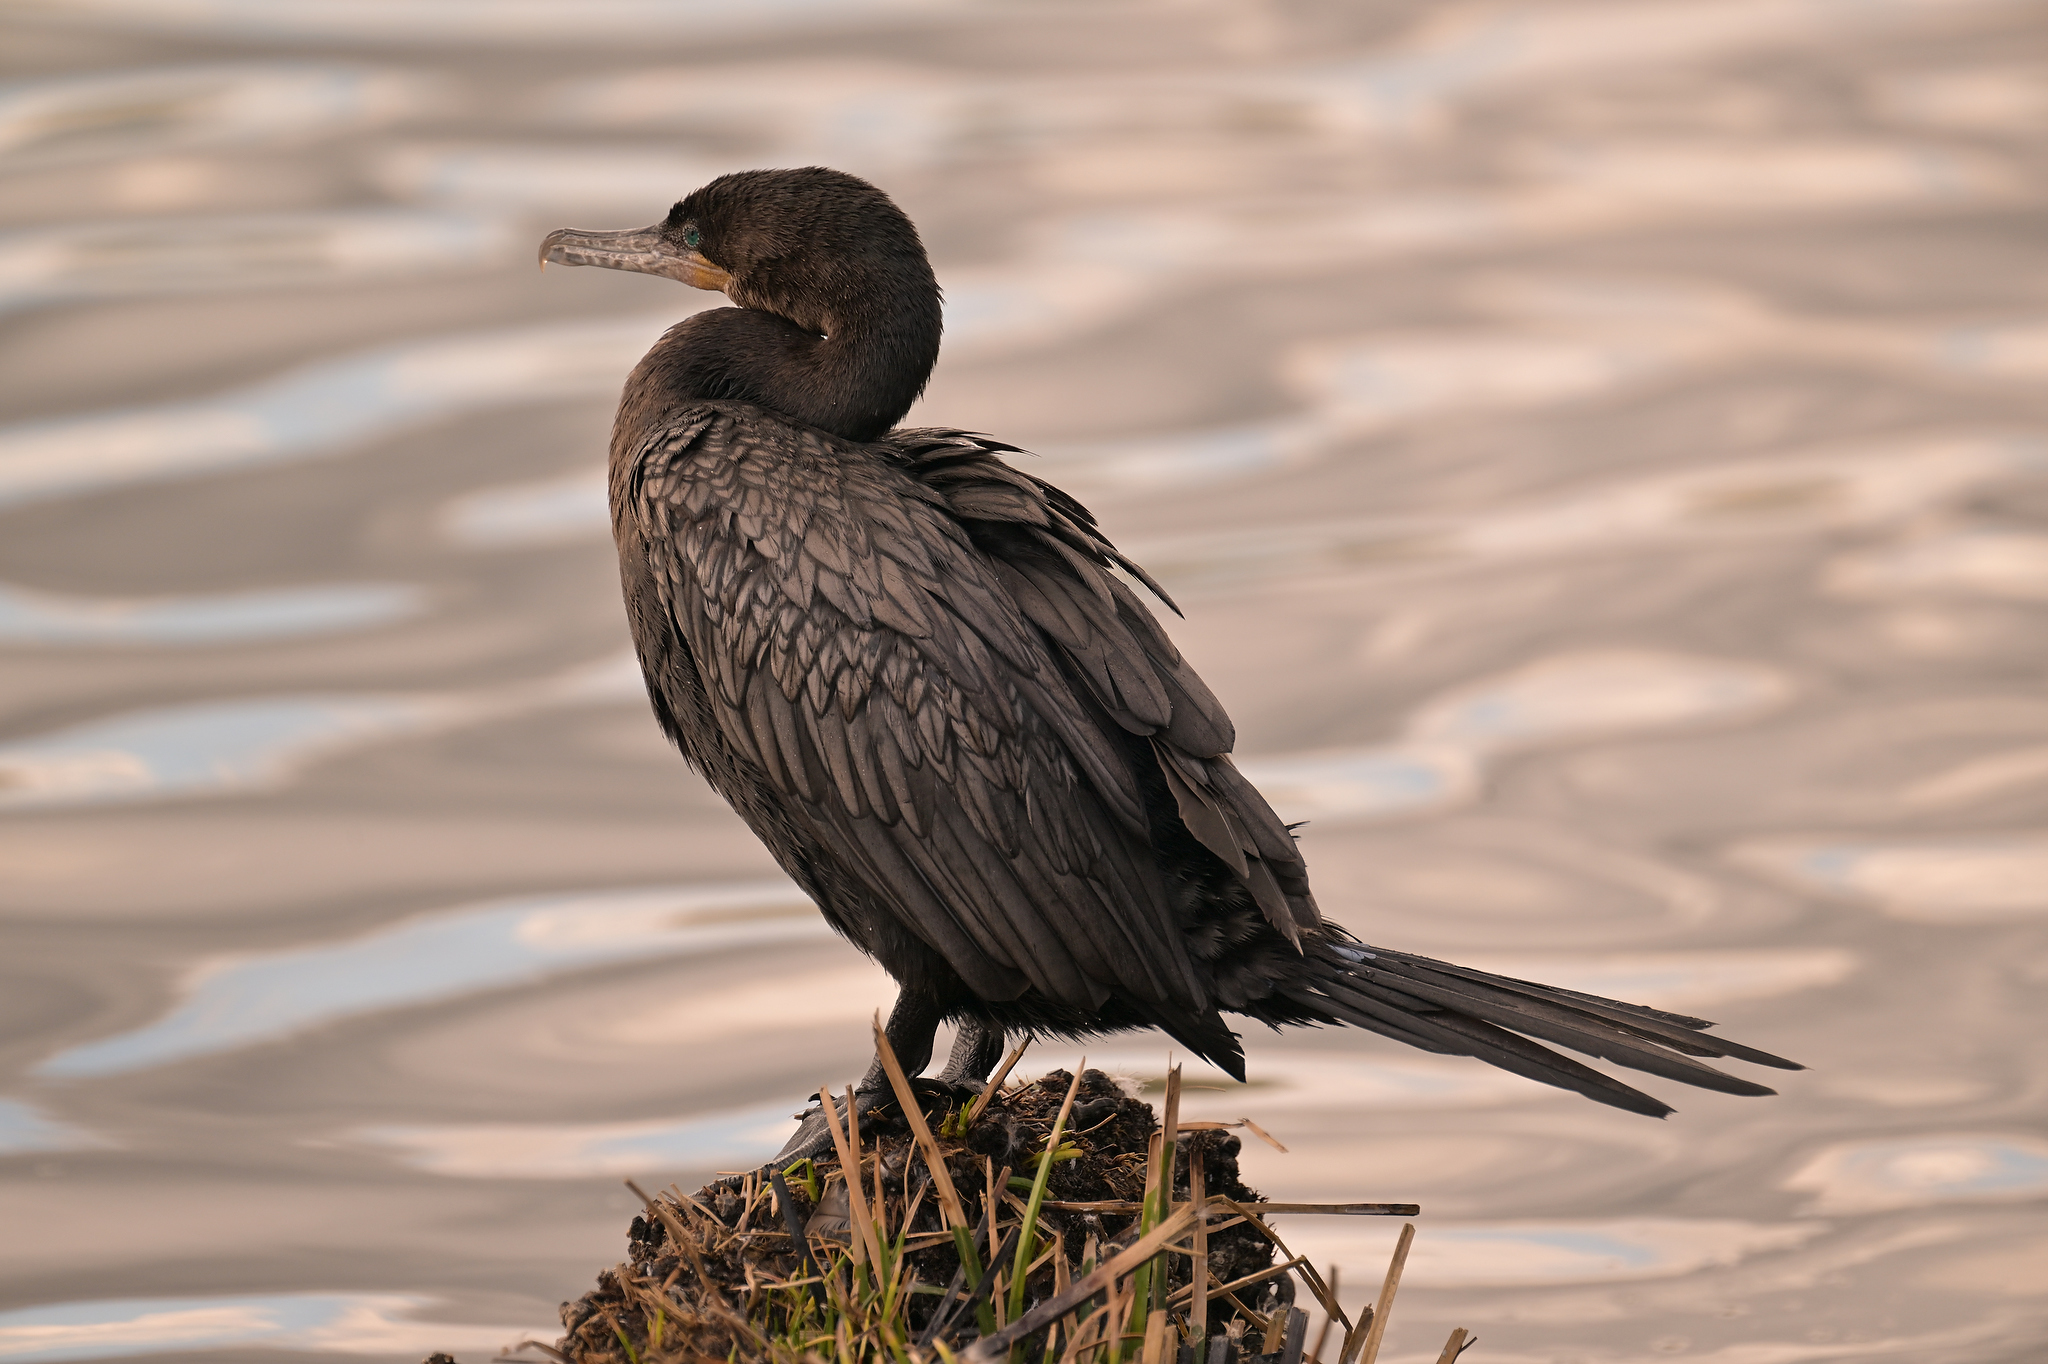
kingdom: Animalia
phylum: Chordata
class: Aves
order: Suliformes
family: Phalacrocoracidae
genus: Phalacrocorax
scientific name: Phalacrocorax auritus
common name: Double-crested cormorant
